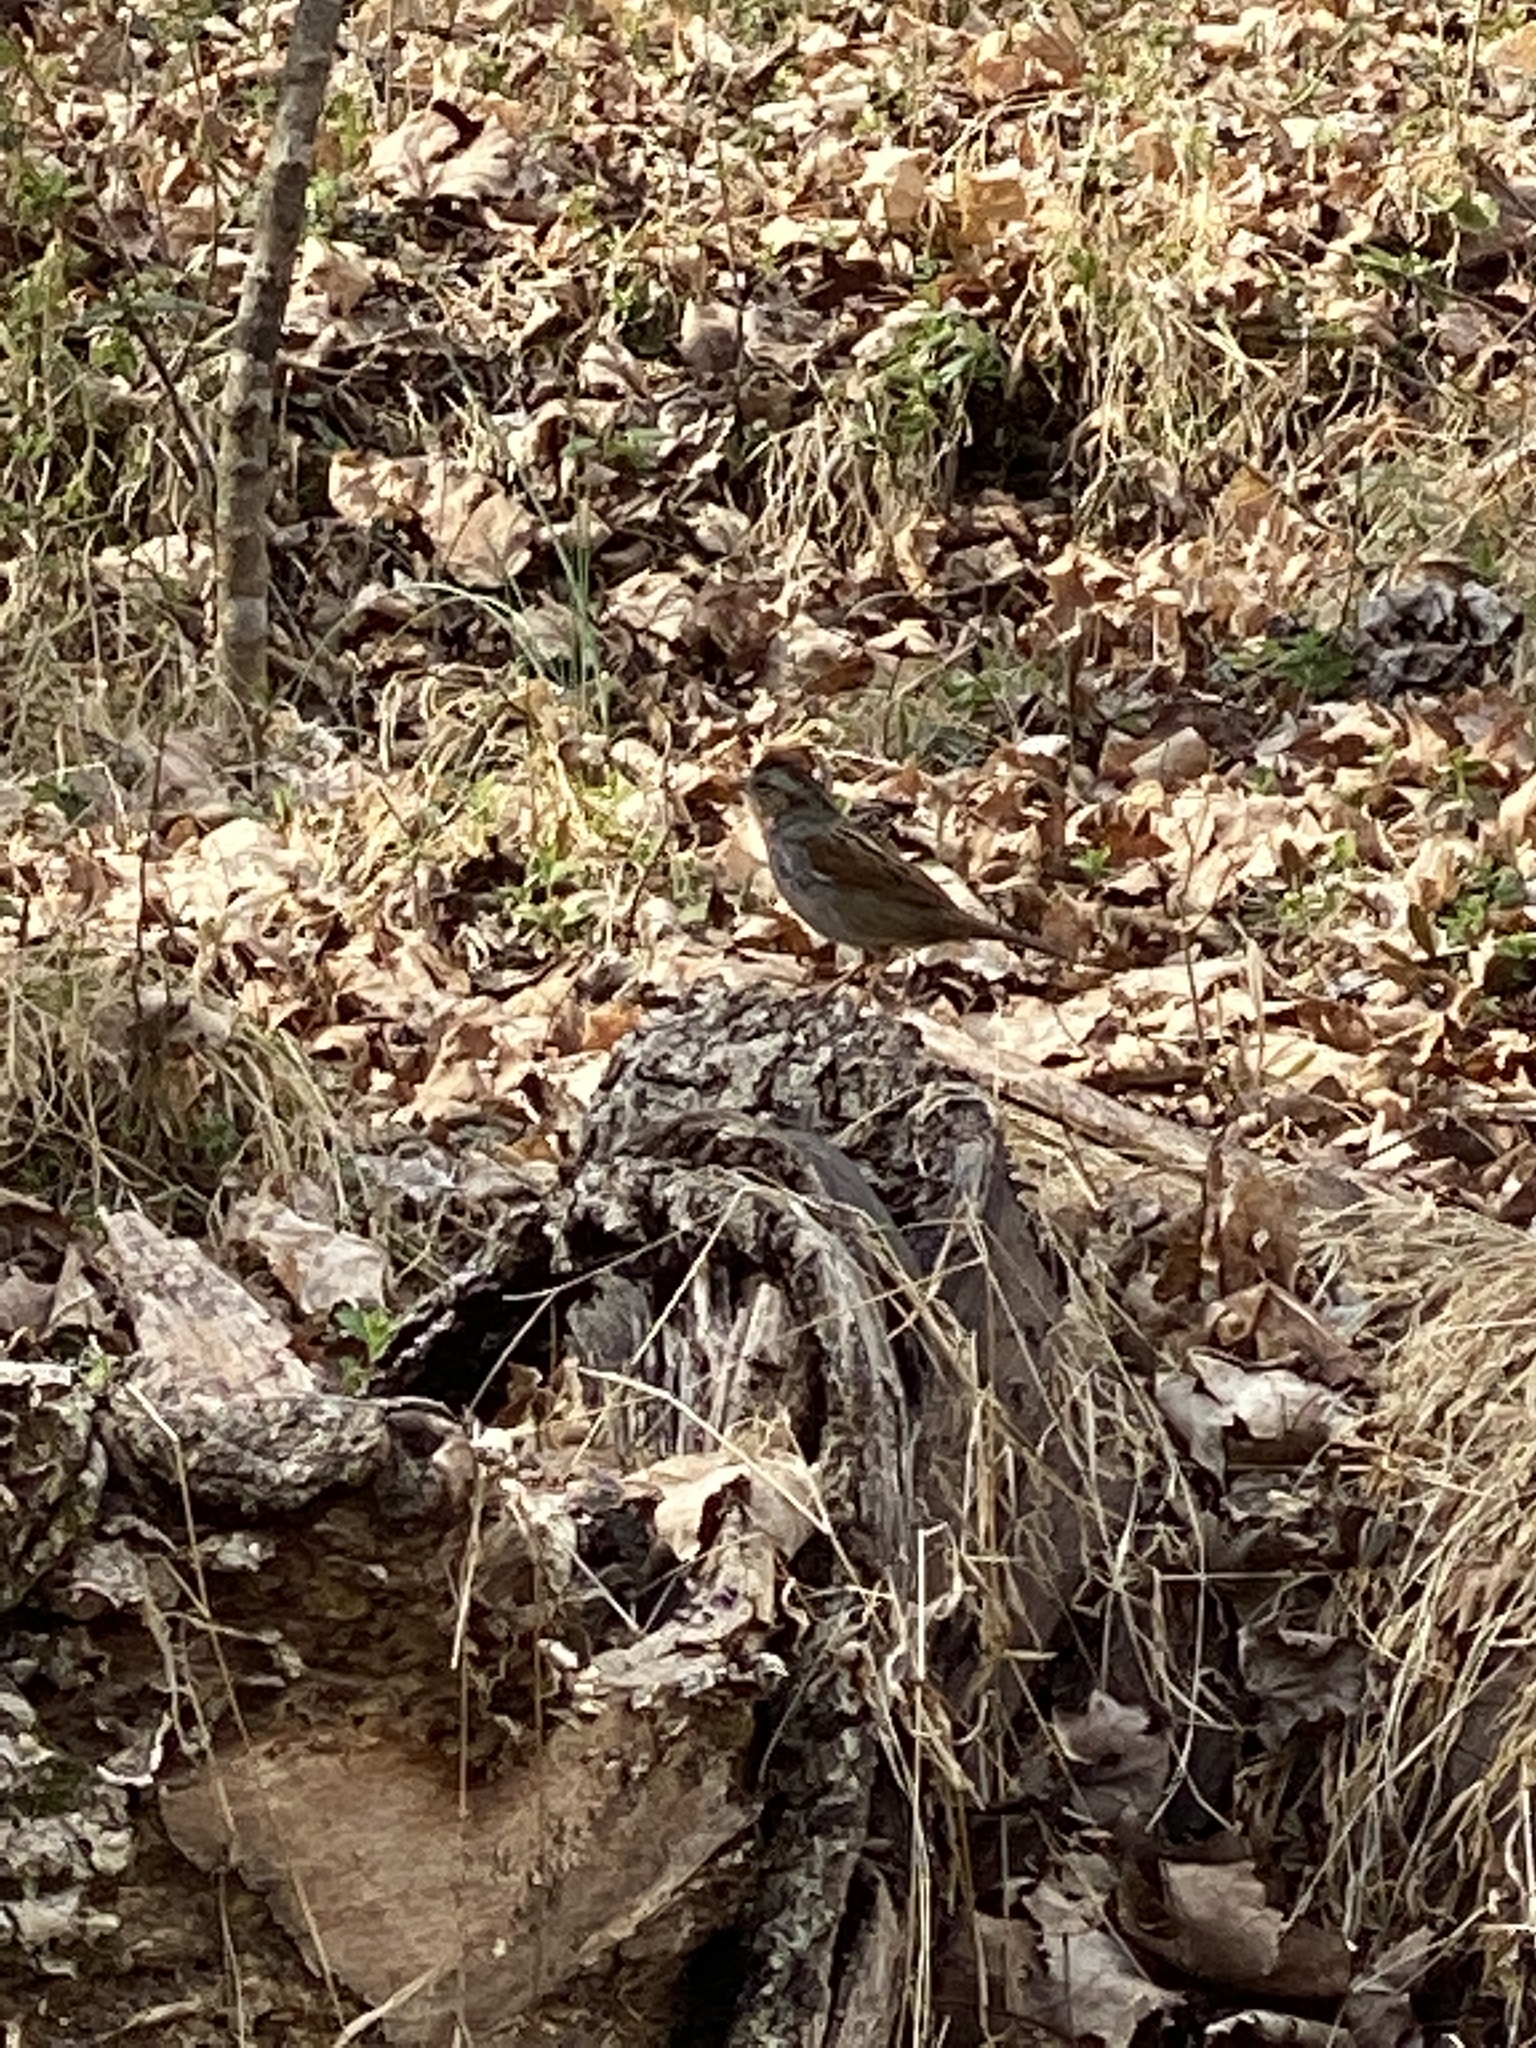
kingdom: Animalia
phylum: Chordata
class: Aves
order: Passeriformes
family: Passerellidae
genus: Melospiza
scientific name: Melospiza georgiana
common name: Swamp sparrow
